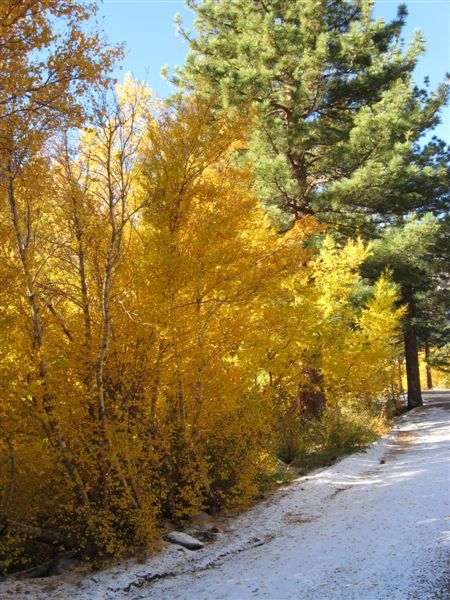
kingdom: Plantae
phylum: Tracheophyta
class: Magnoliopsida
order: Malpighiales
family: Salicaceae
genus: Populus
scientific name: Populus tremuloides
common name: Quaking aspen
